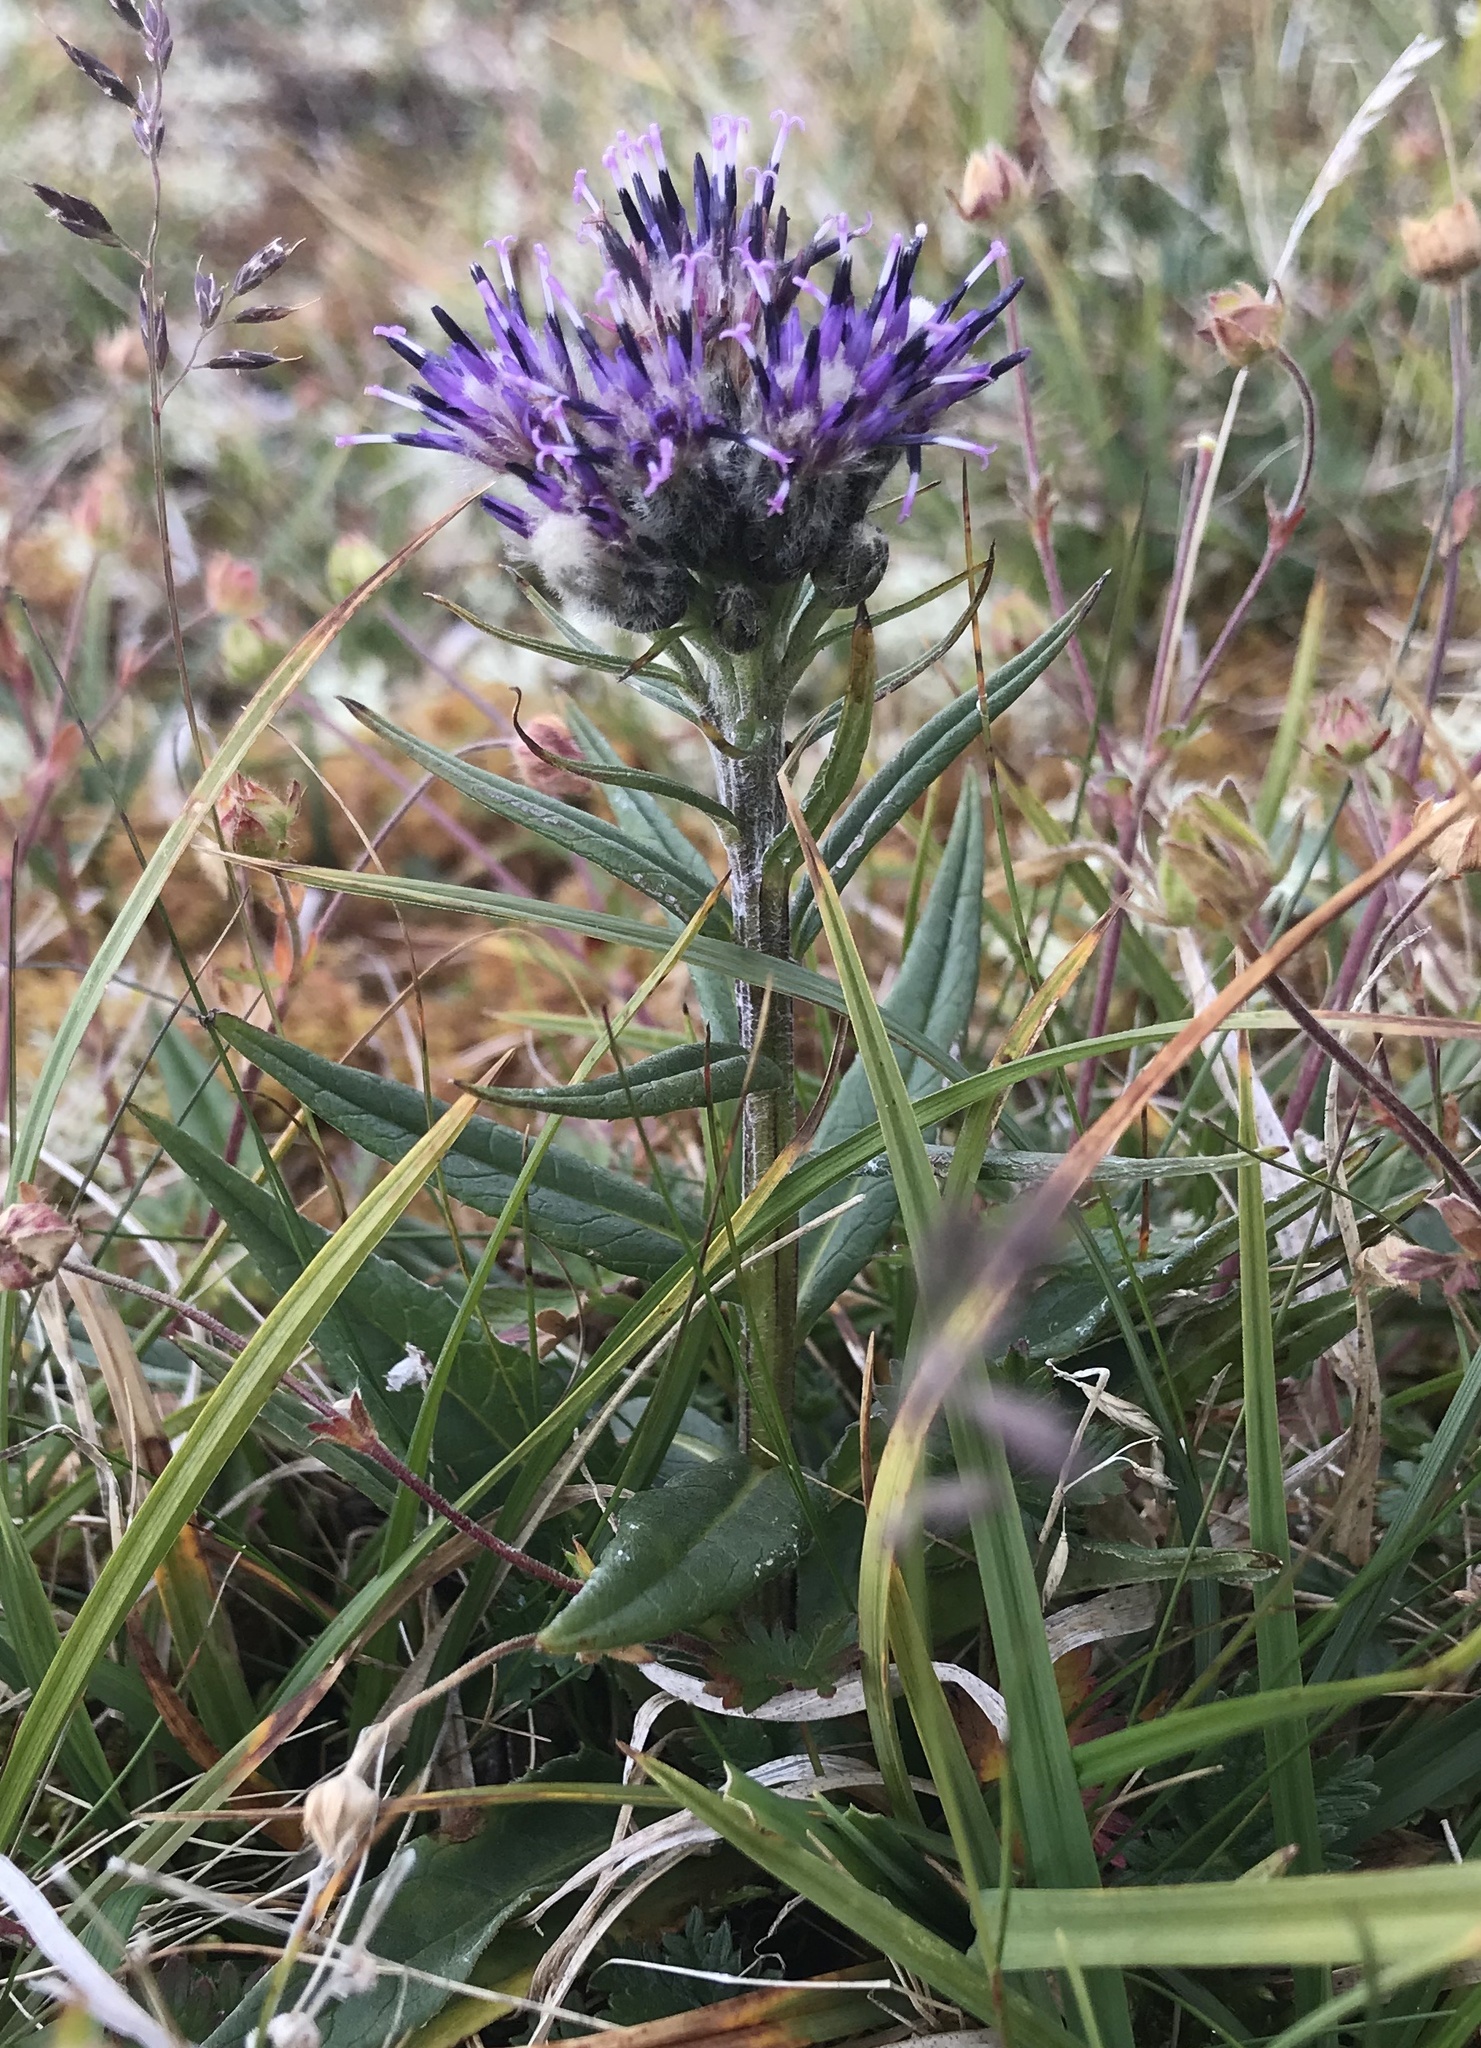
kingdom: Plantae
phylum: Tracheophyta
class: Magnoliopsida
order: Asterales
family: Asteraceae
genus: Saussurea
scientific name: Saussurea alpina
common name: Alpine saw-wort
